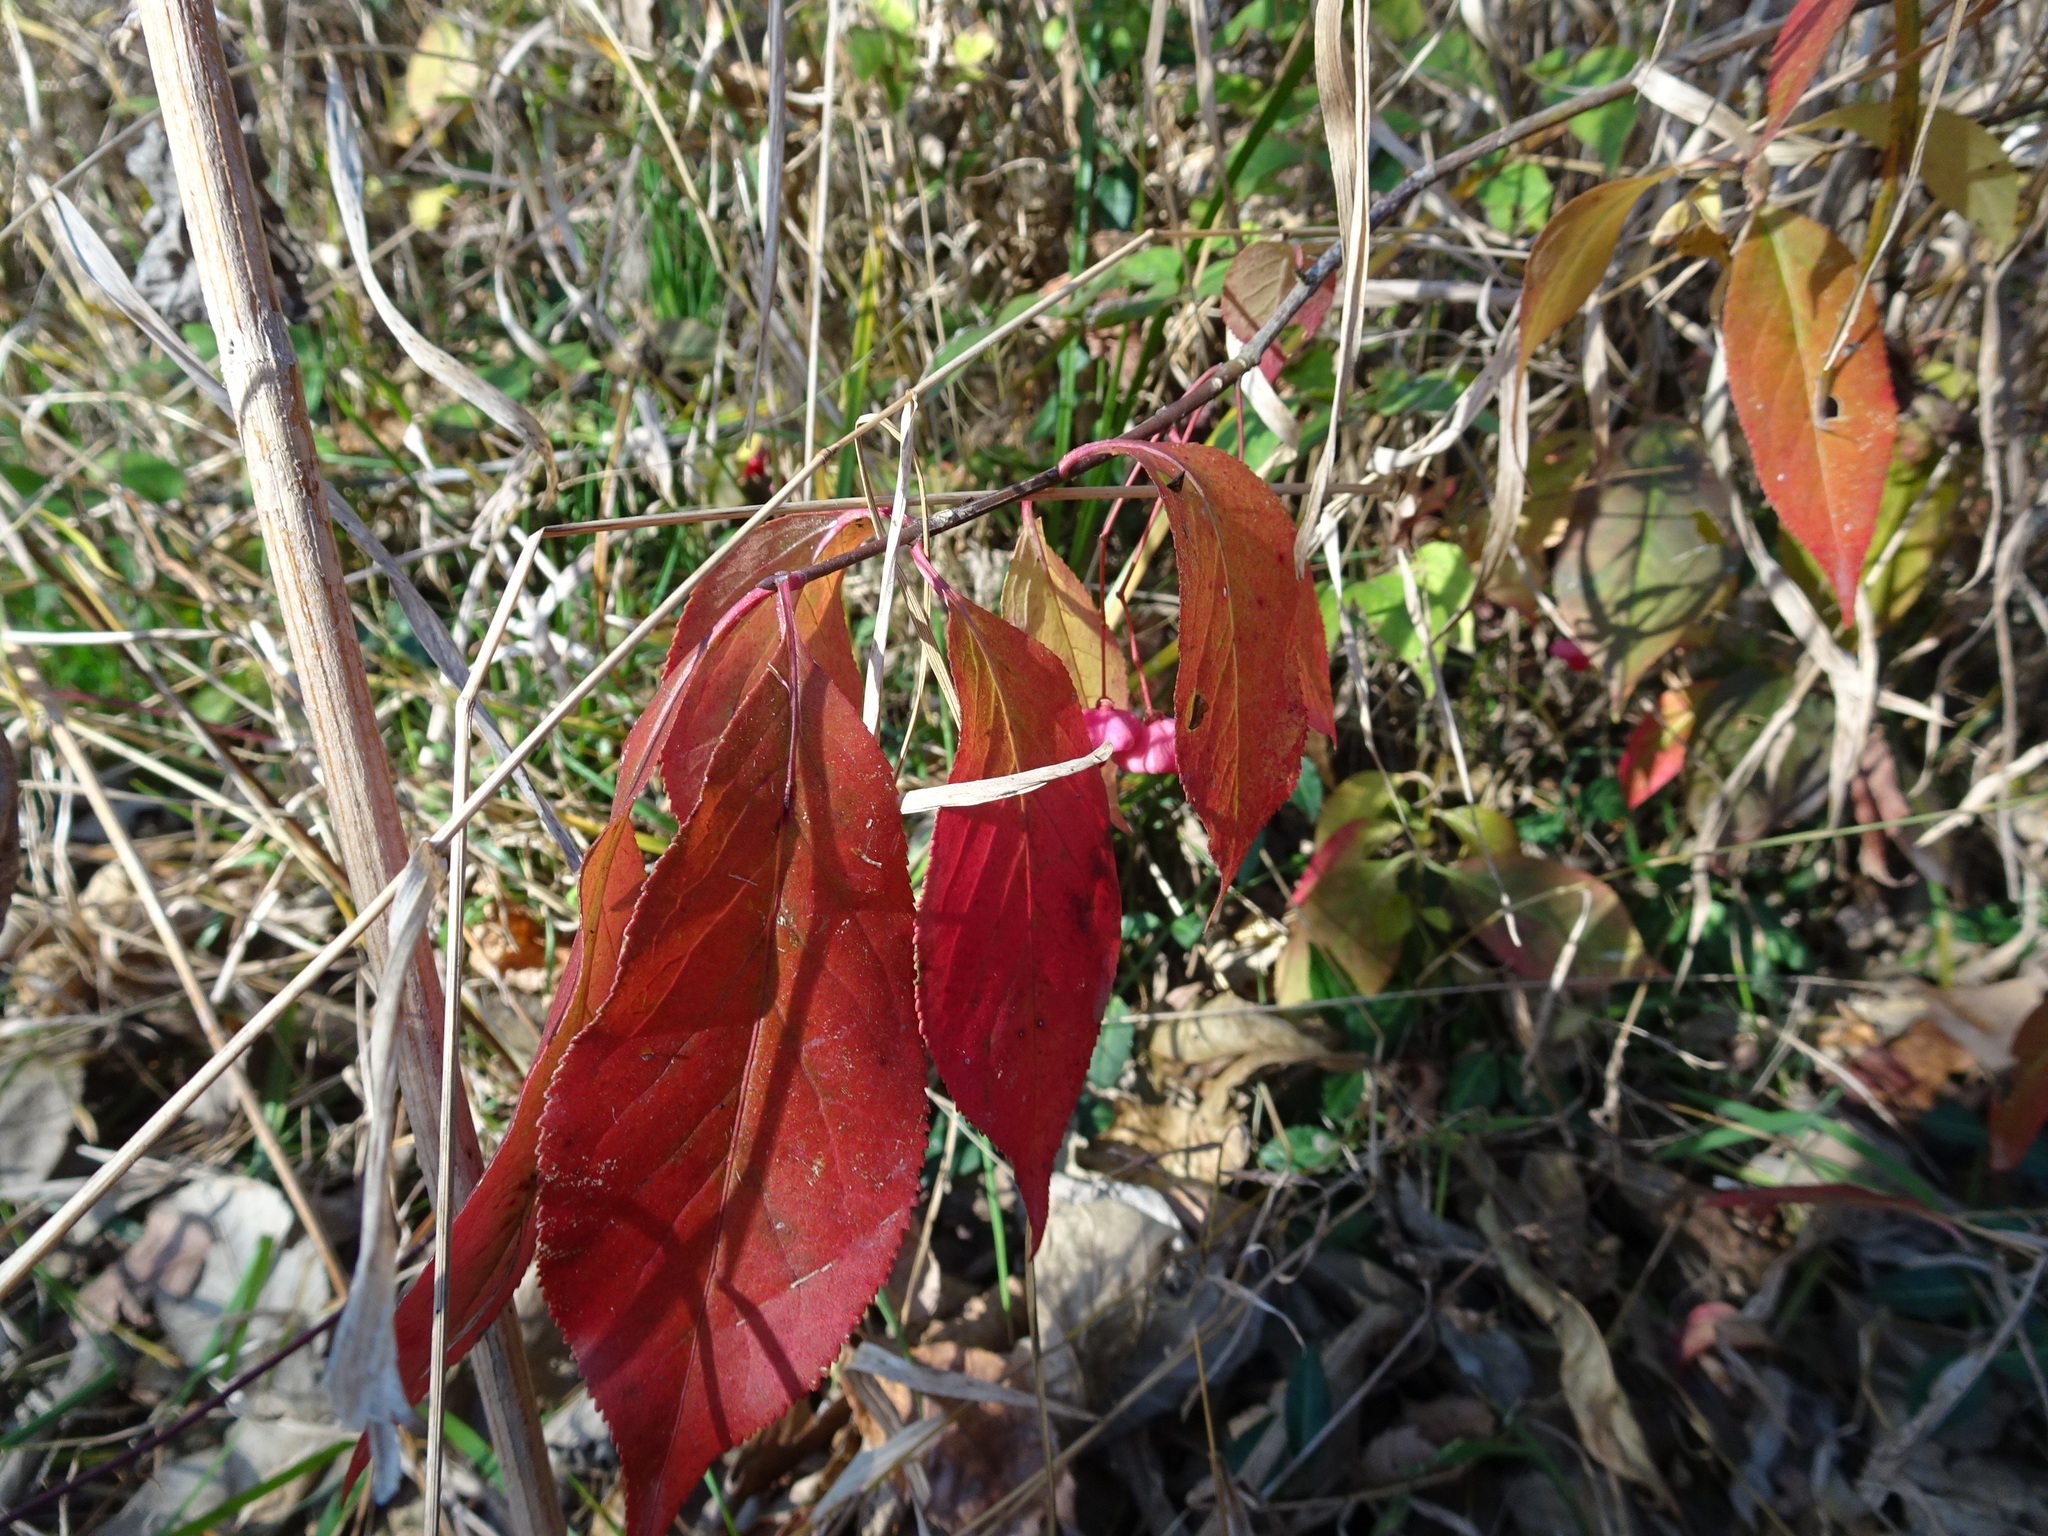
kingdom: Plantae
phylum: Tracheophyta
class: Magnoliopsida
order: Celastrales
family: Celastraceae
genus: Euonymus
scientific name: Euonymus atropurpureus
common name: Eastern wahoo
